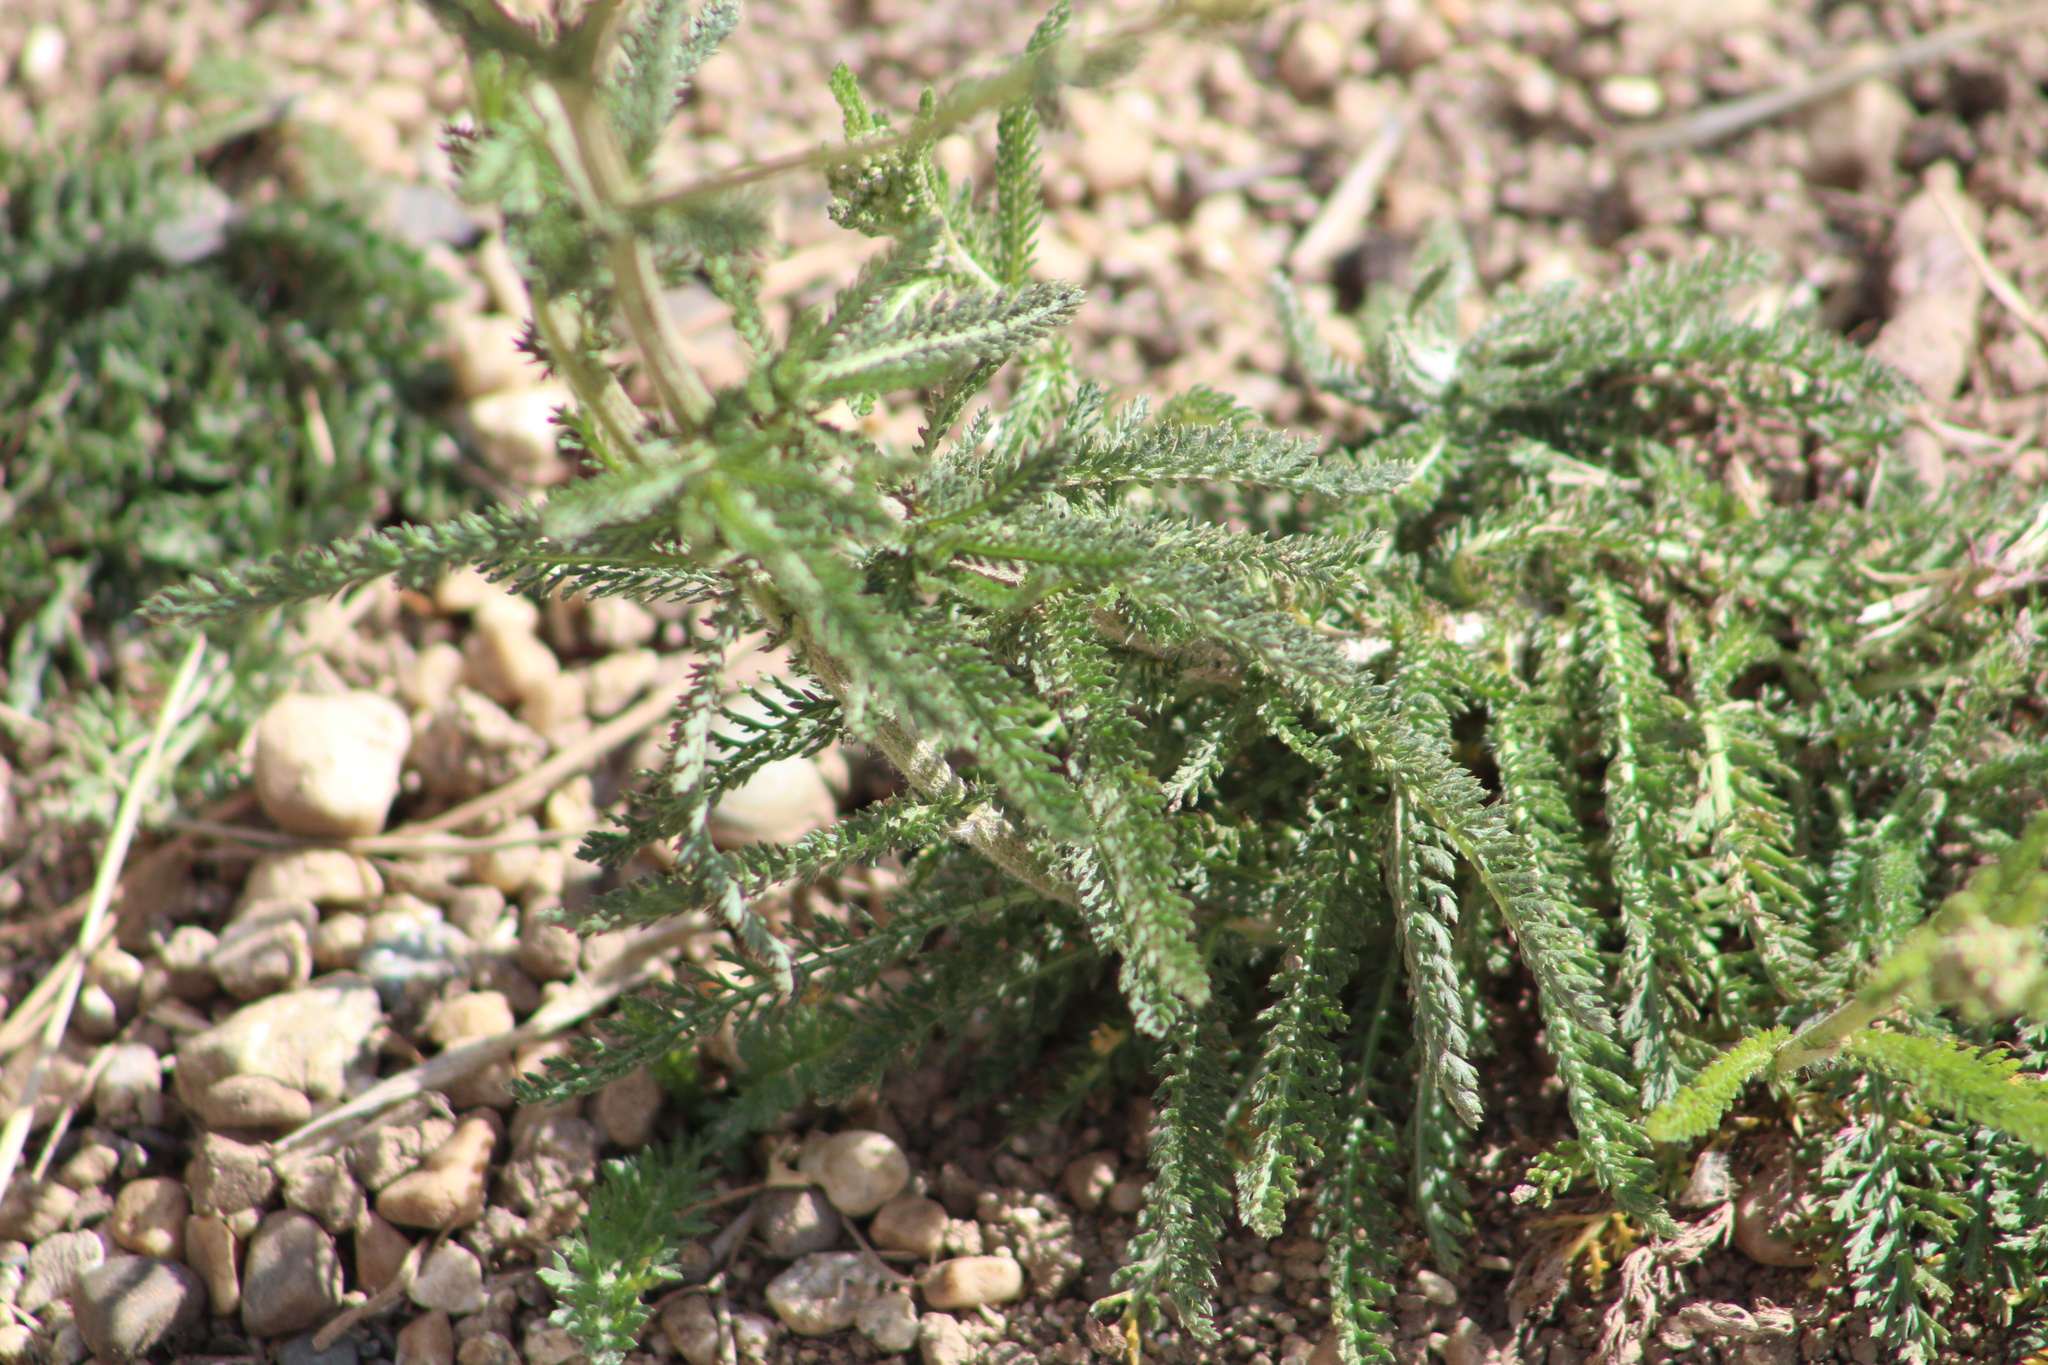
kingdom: Plantae
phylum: Tracheophyta
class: Magnoliopsida
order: Asterales
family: Asteraceae
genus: Achillea
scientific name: Achillea millefolium
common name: Yarrow
